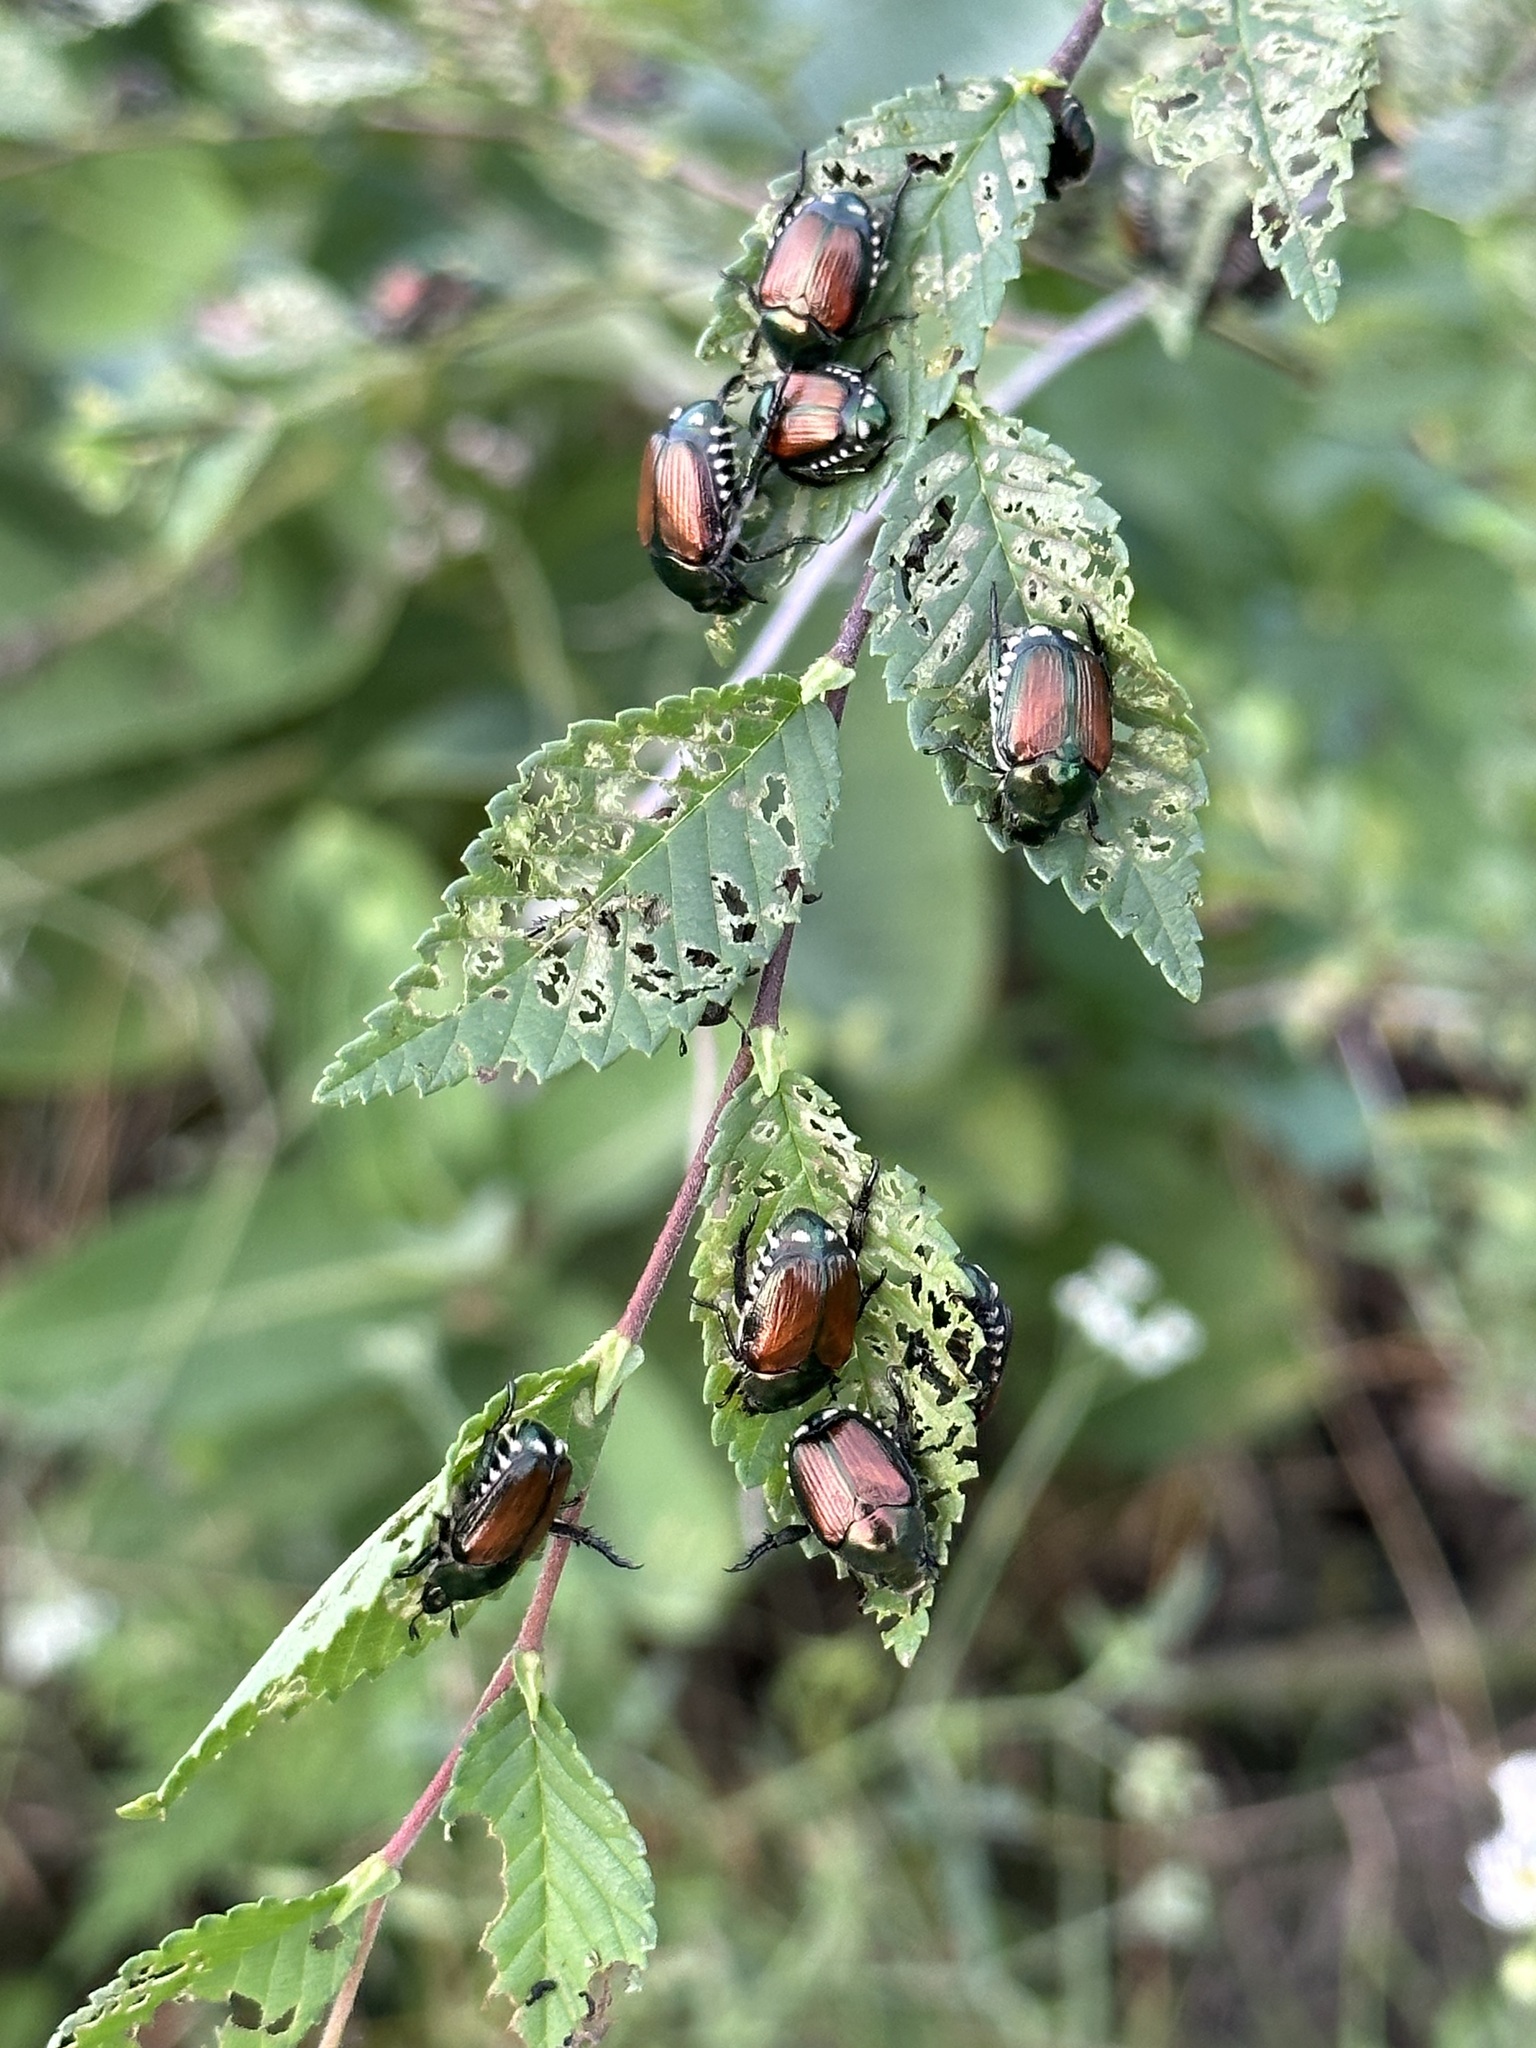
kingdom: Animalia
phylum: Arthropoda
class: Insecta
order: Coleoptera
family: Scarabaeidae
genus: Popillia
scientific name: Popillia japonica
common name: Japanese beetle
